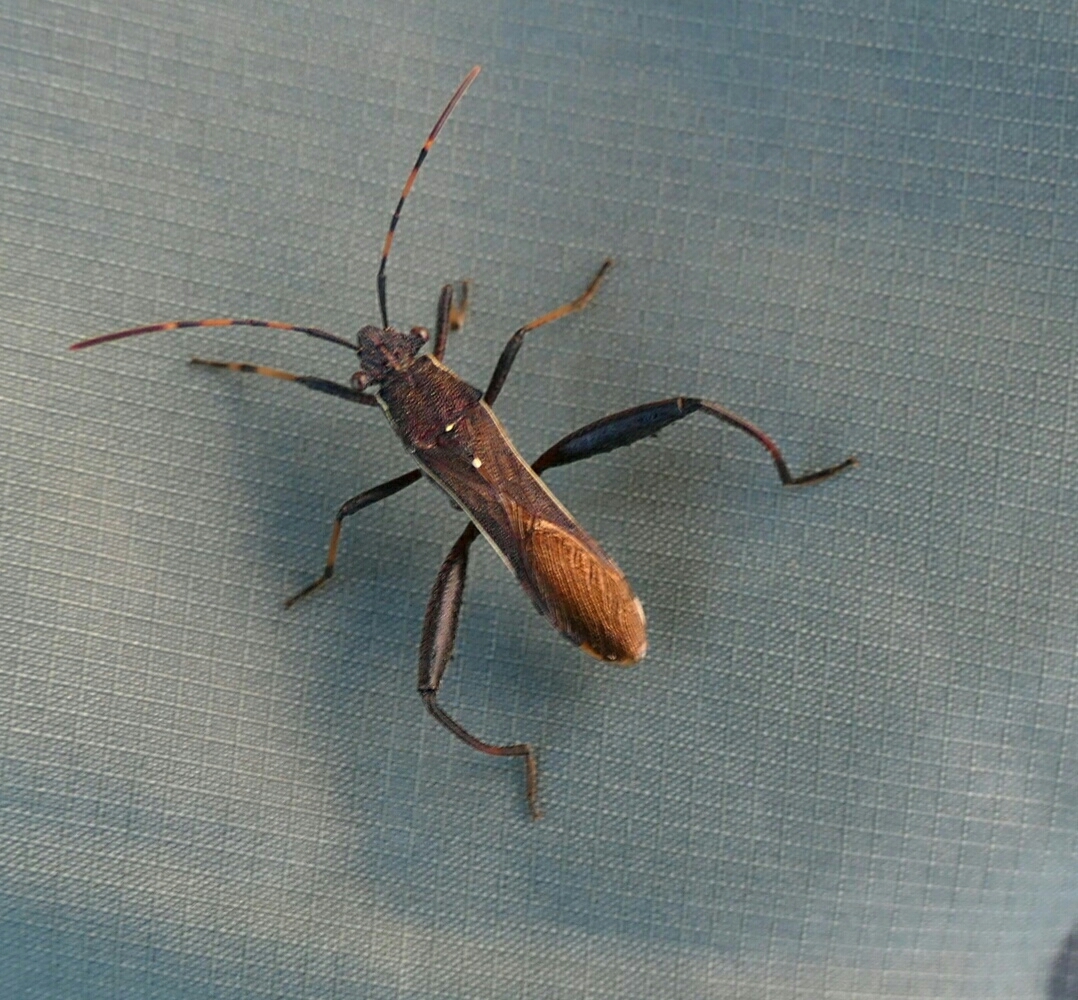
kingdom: Animalia
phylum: Arthropoda
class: Insecta
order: Hemiptera
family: Alydidae
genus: Camptopus
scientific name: Camptopus lateralis
